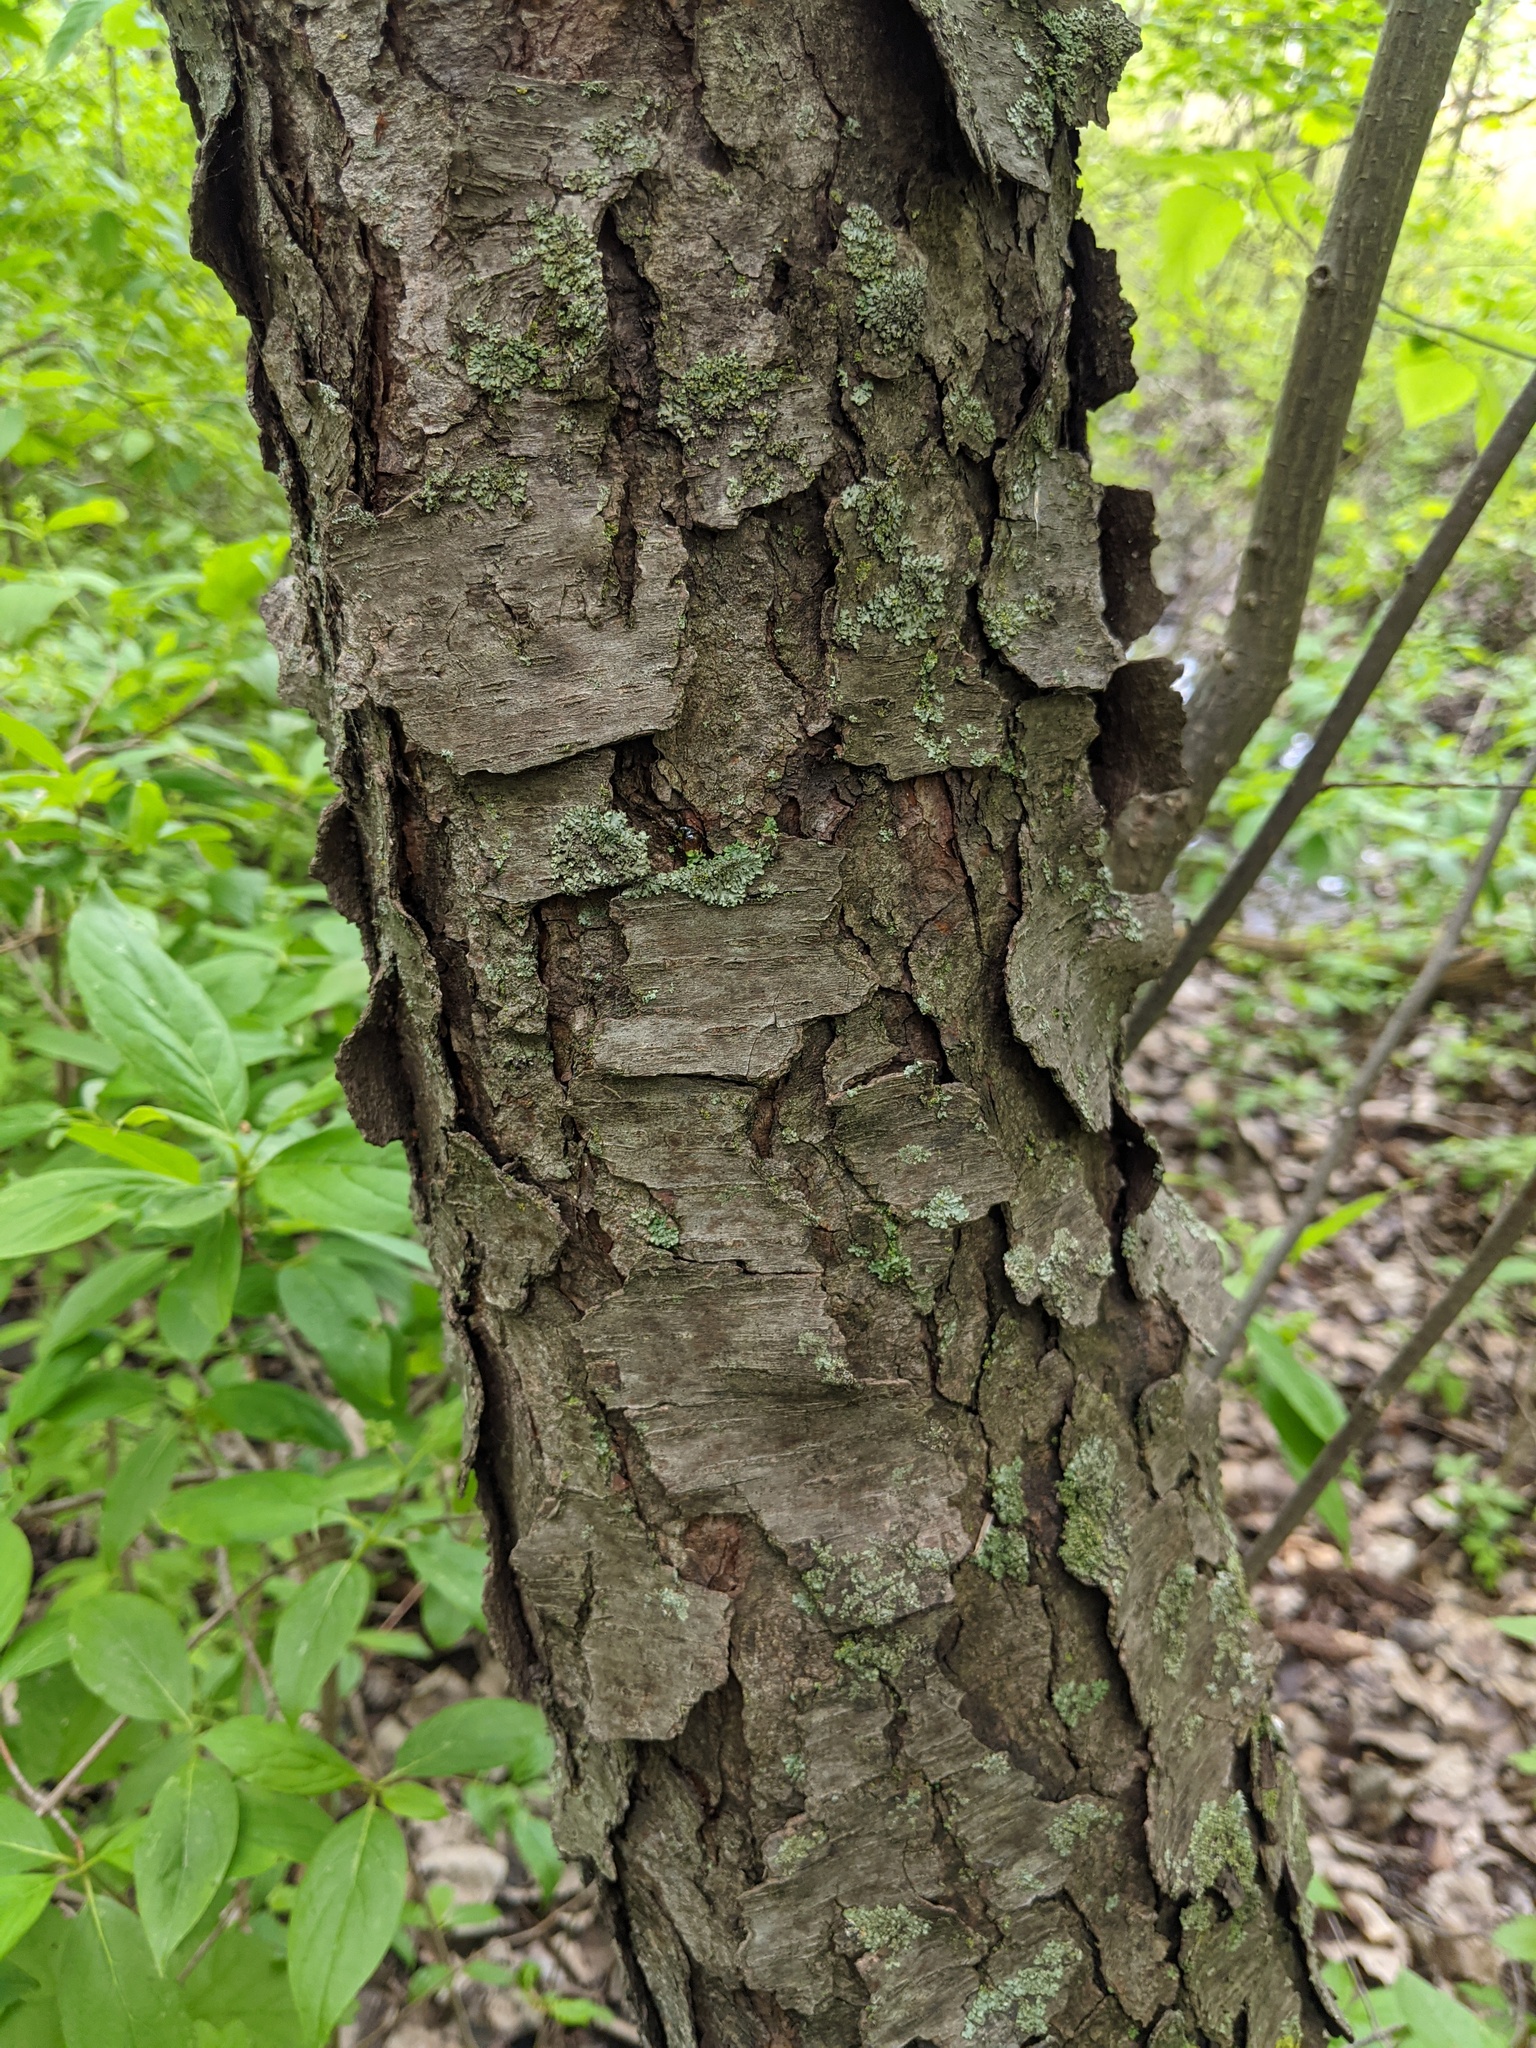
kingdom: Plantae
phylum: Tracheophyta
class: Magnoliopsida
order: Rosales
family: Rosaceae
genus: Prunus
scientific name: Prunus serotina
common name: Black cherry
